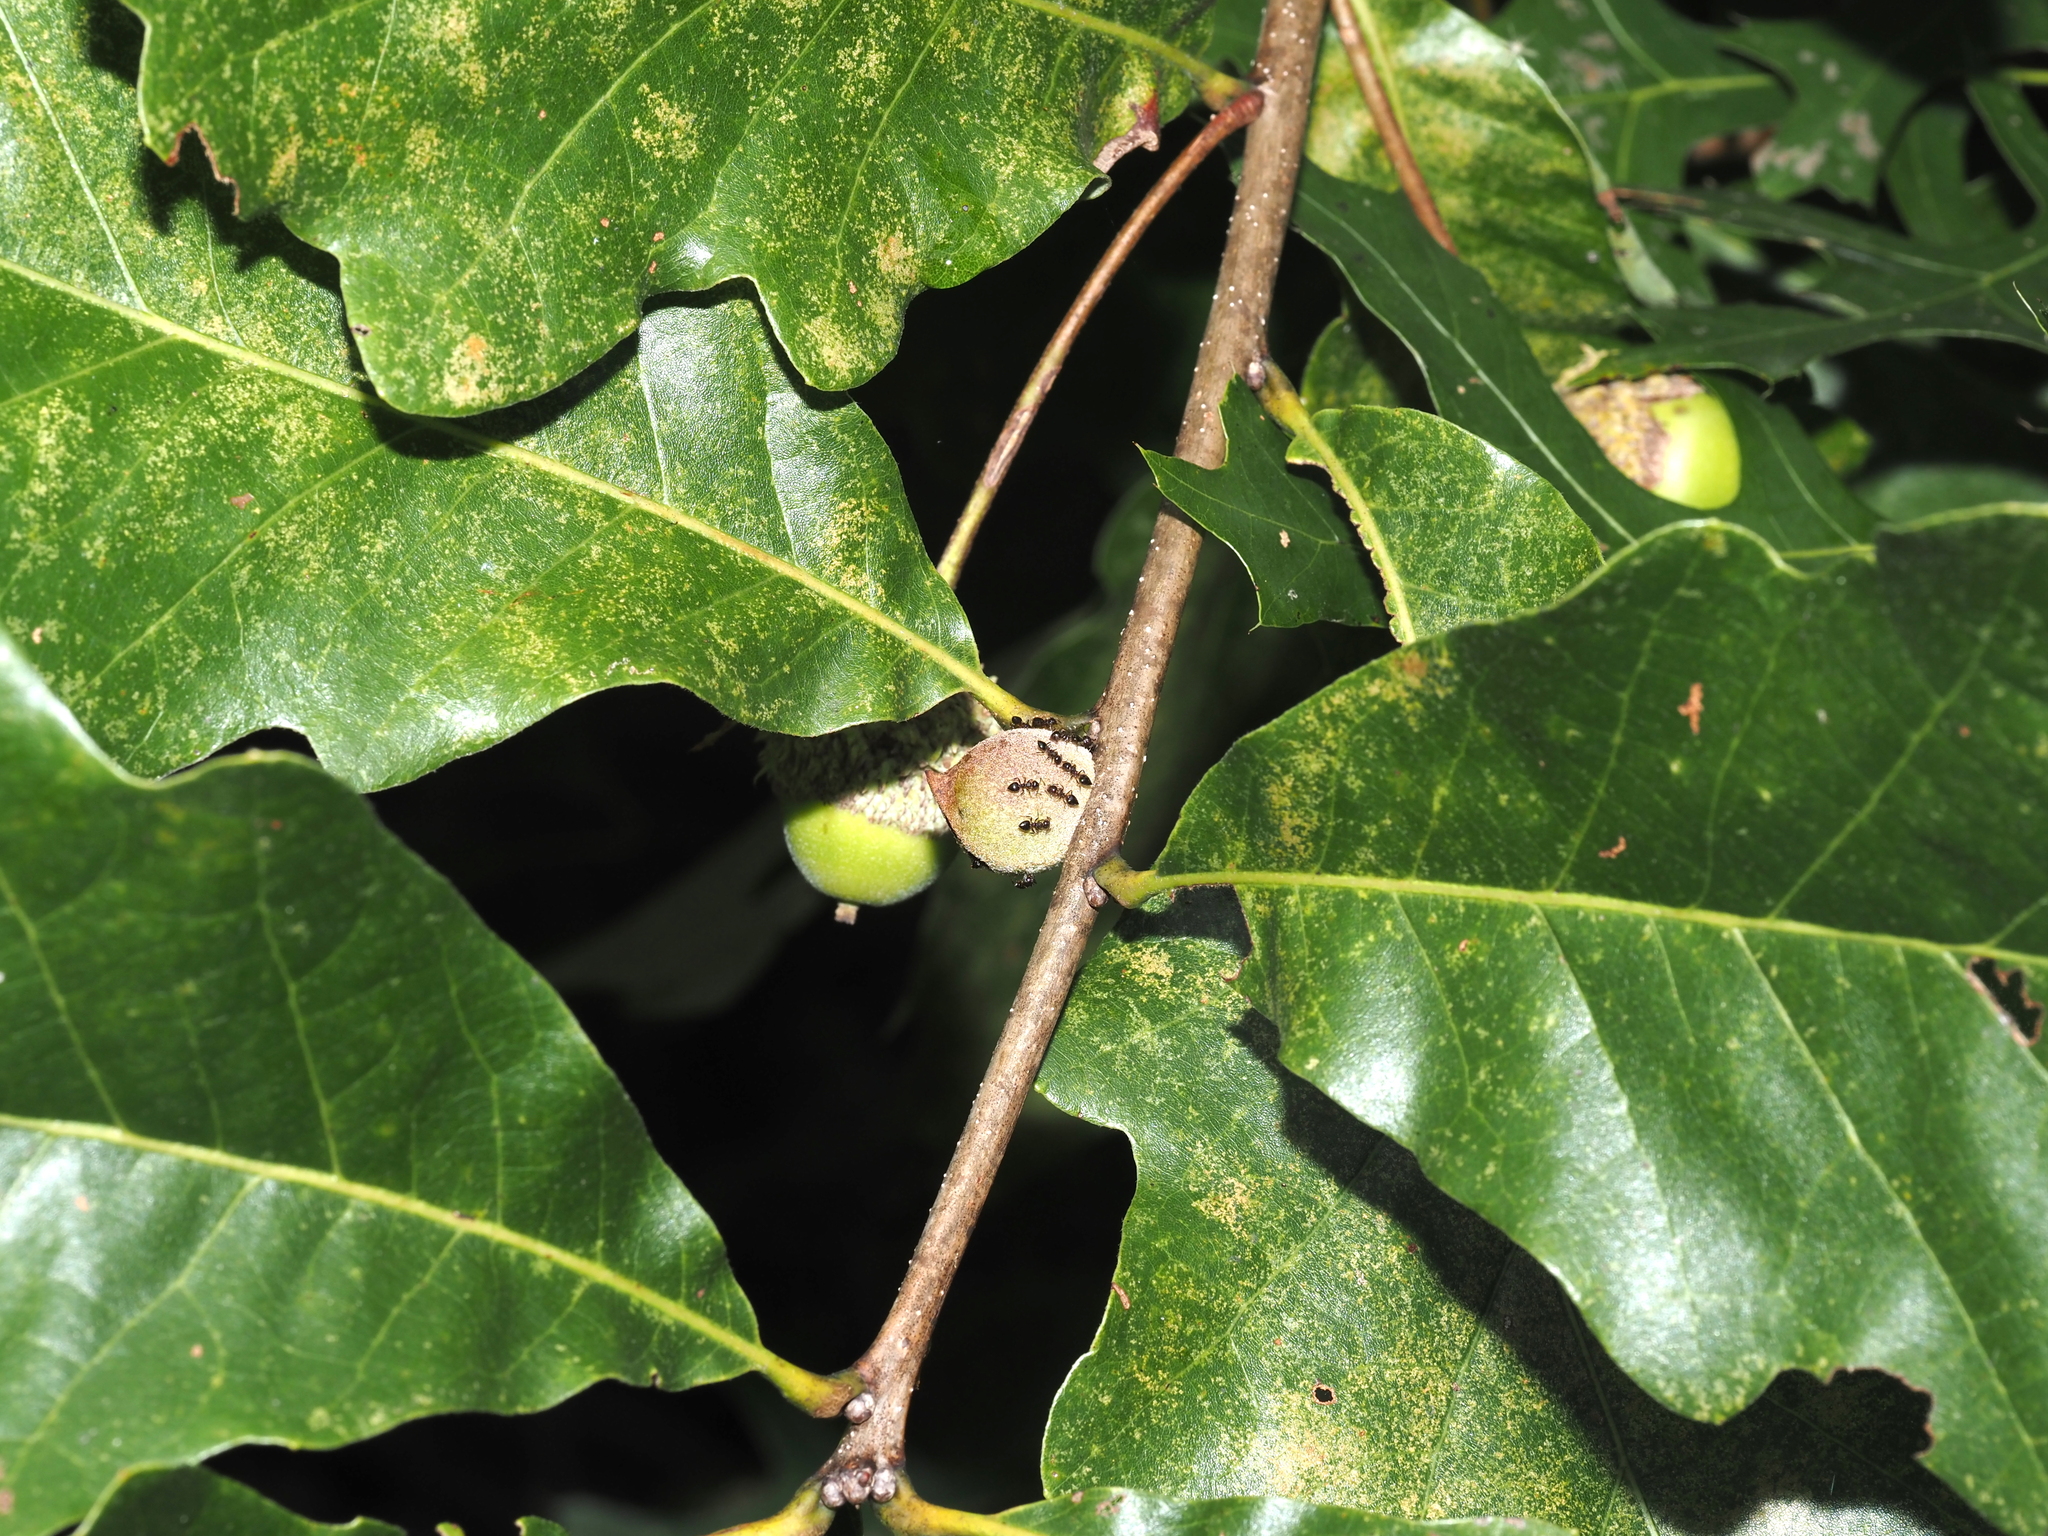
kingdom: Animalia
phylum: Arthropoda
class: Insecta
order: Hymenoptera
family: Cynipidae
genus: Disholcaspis
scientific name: Disholcaspis
